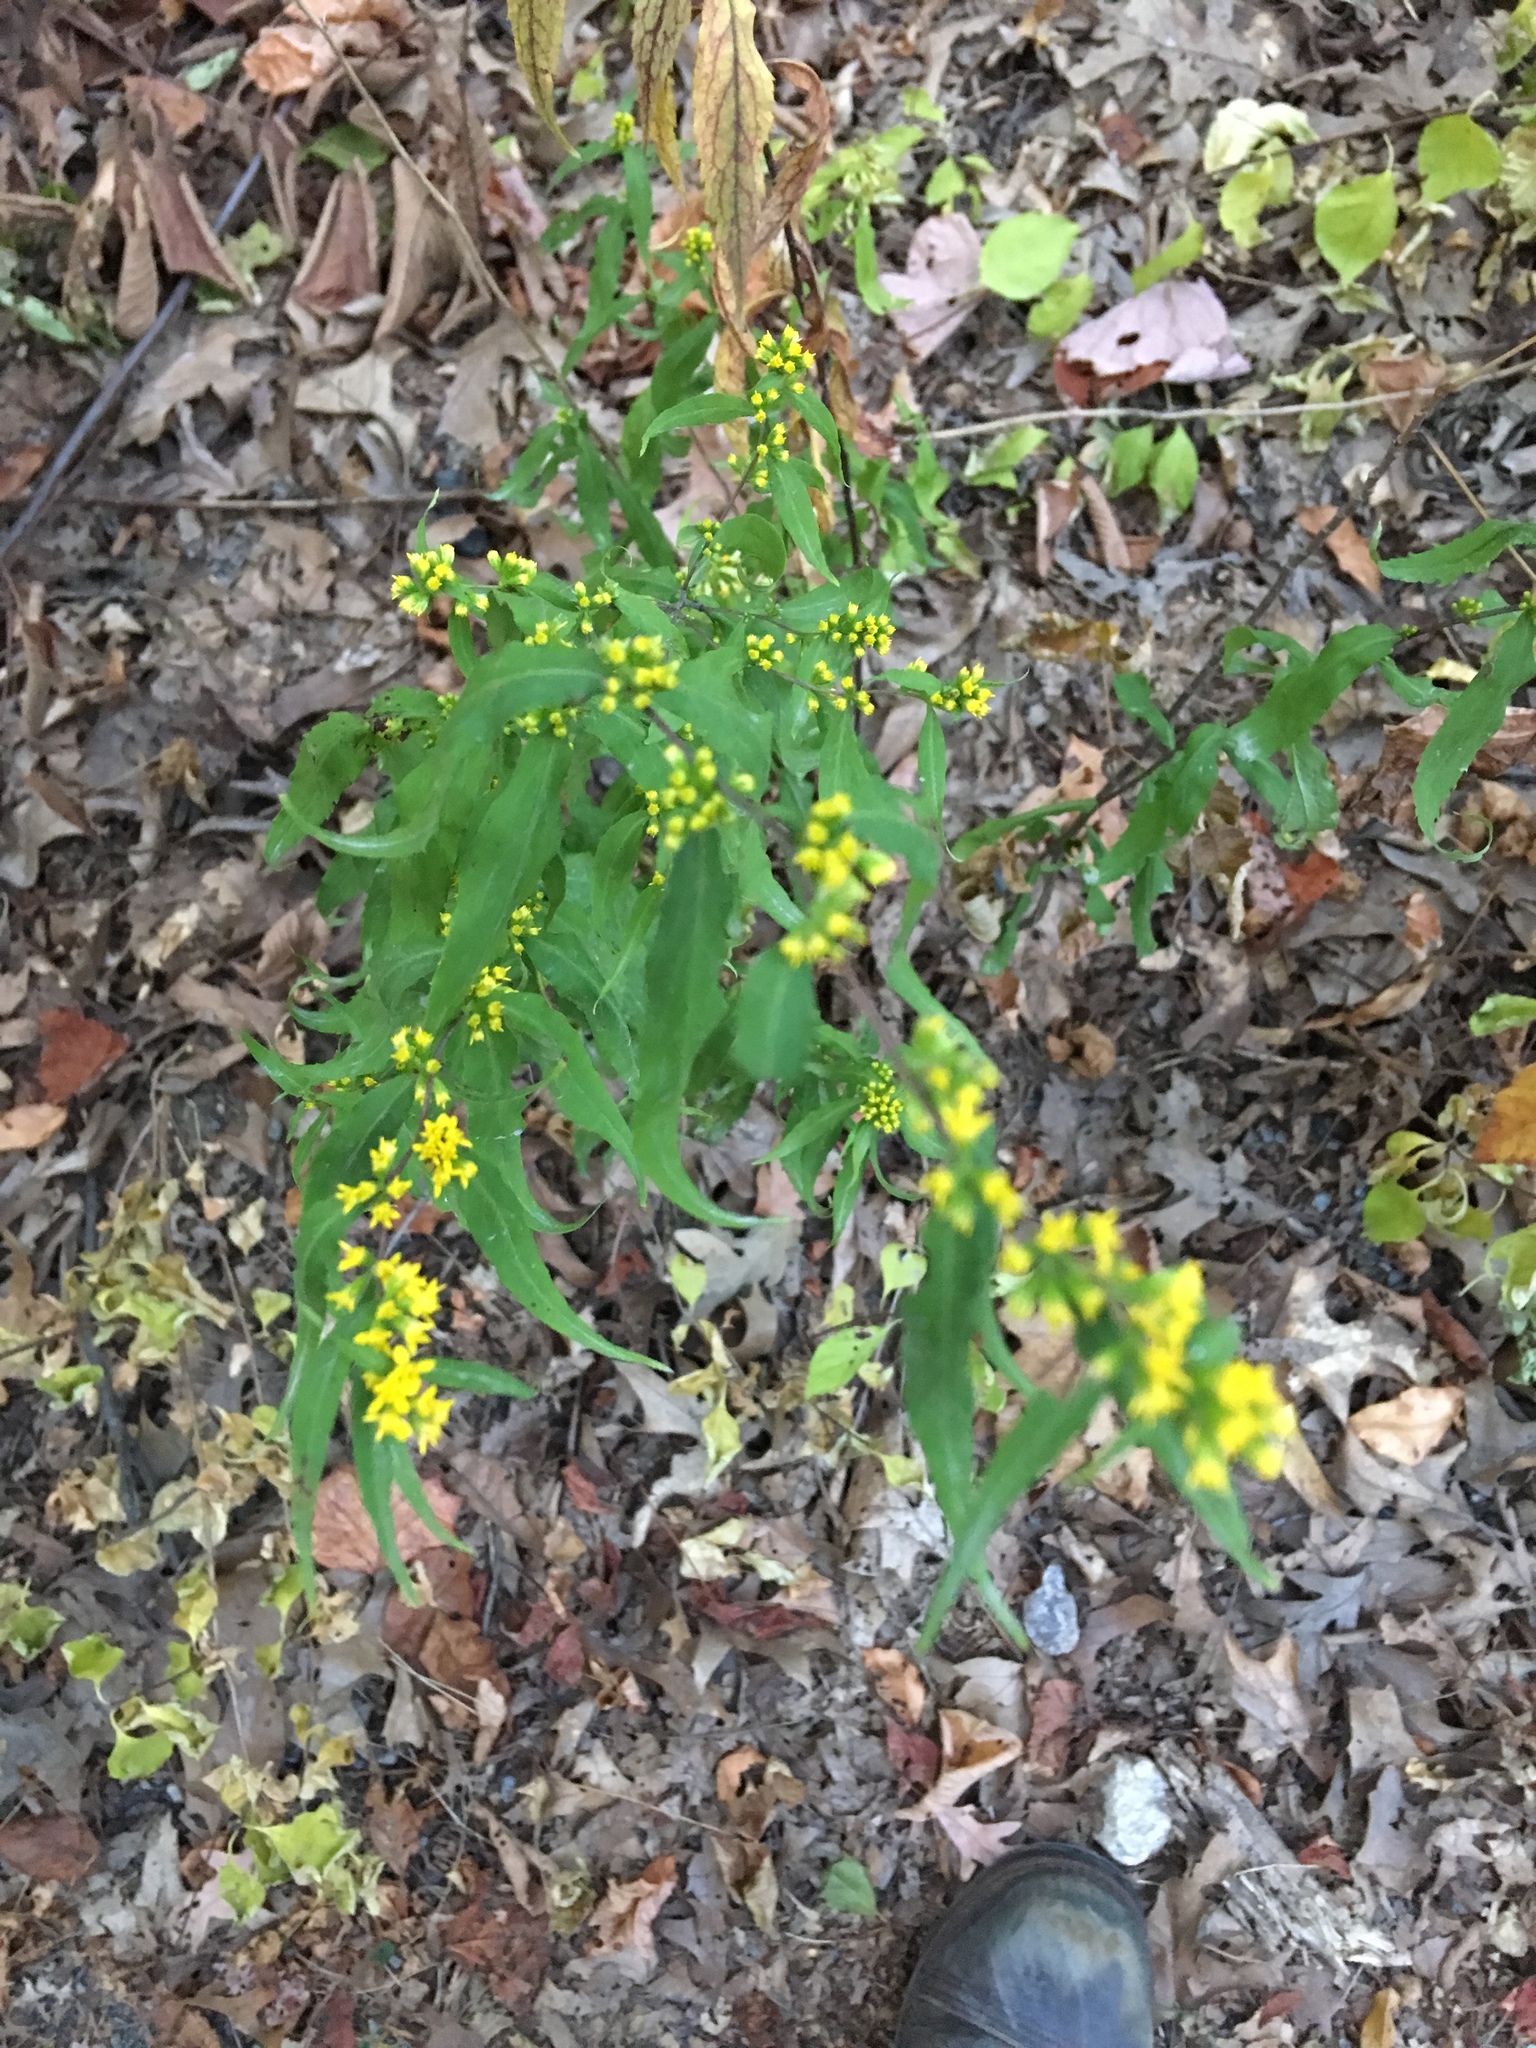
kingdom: Plantae
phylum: Tracheophyta
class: Magnoliopsida
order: Asterales
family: Asteraceae
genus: Solidago
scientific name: Solidago caesia
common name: Woodland goldenrod
